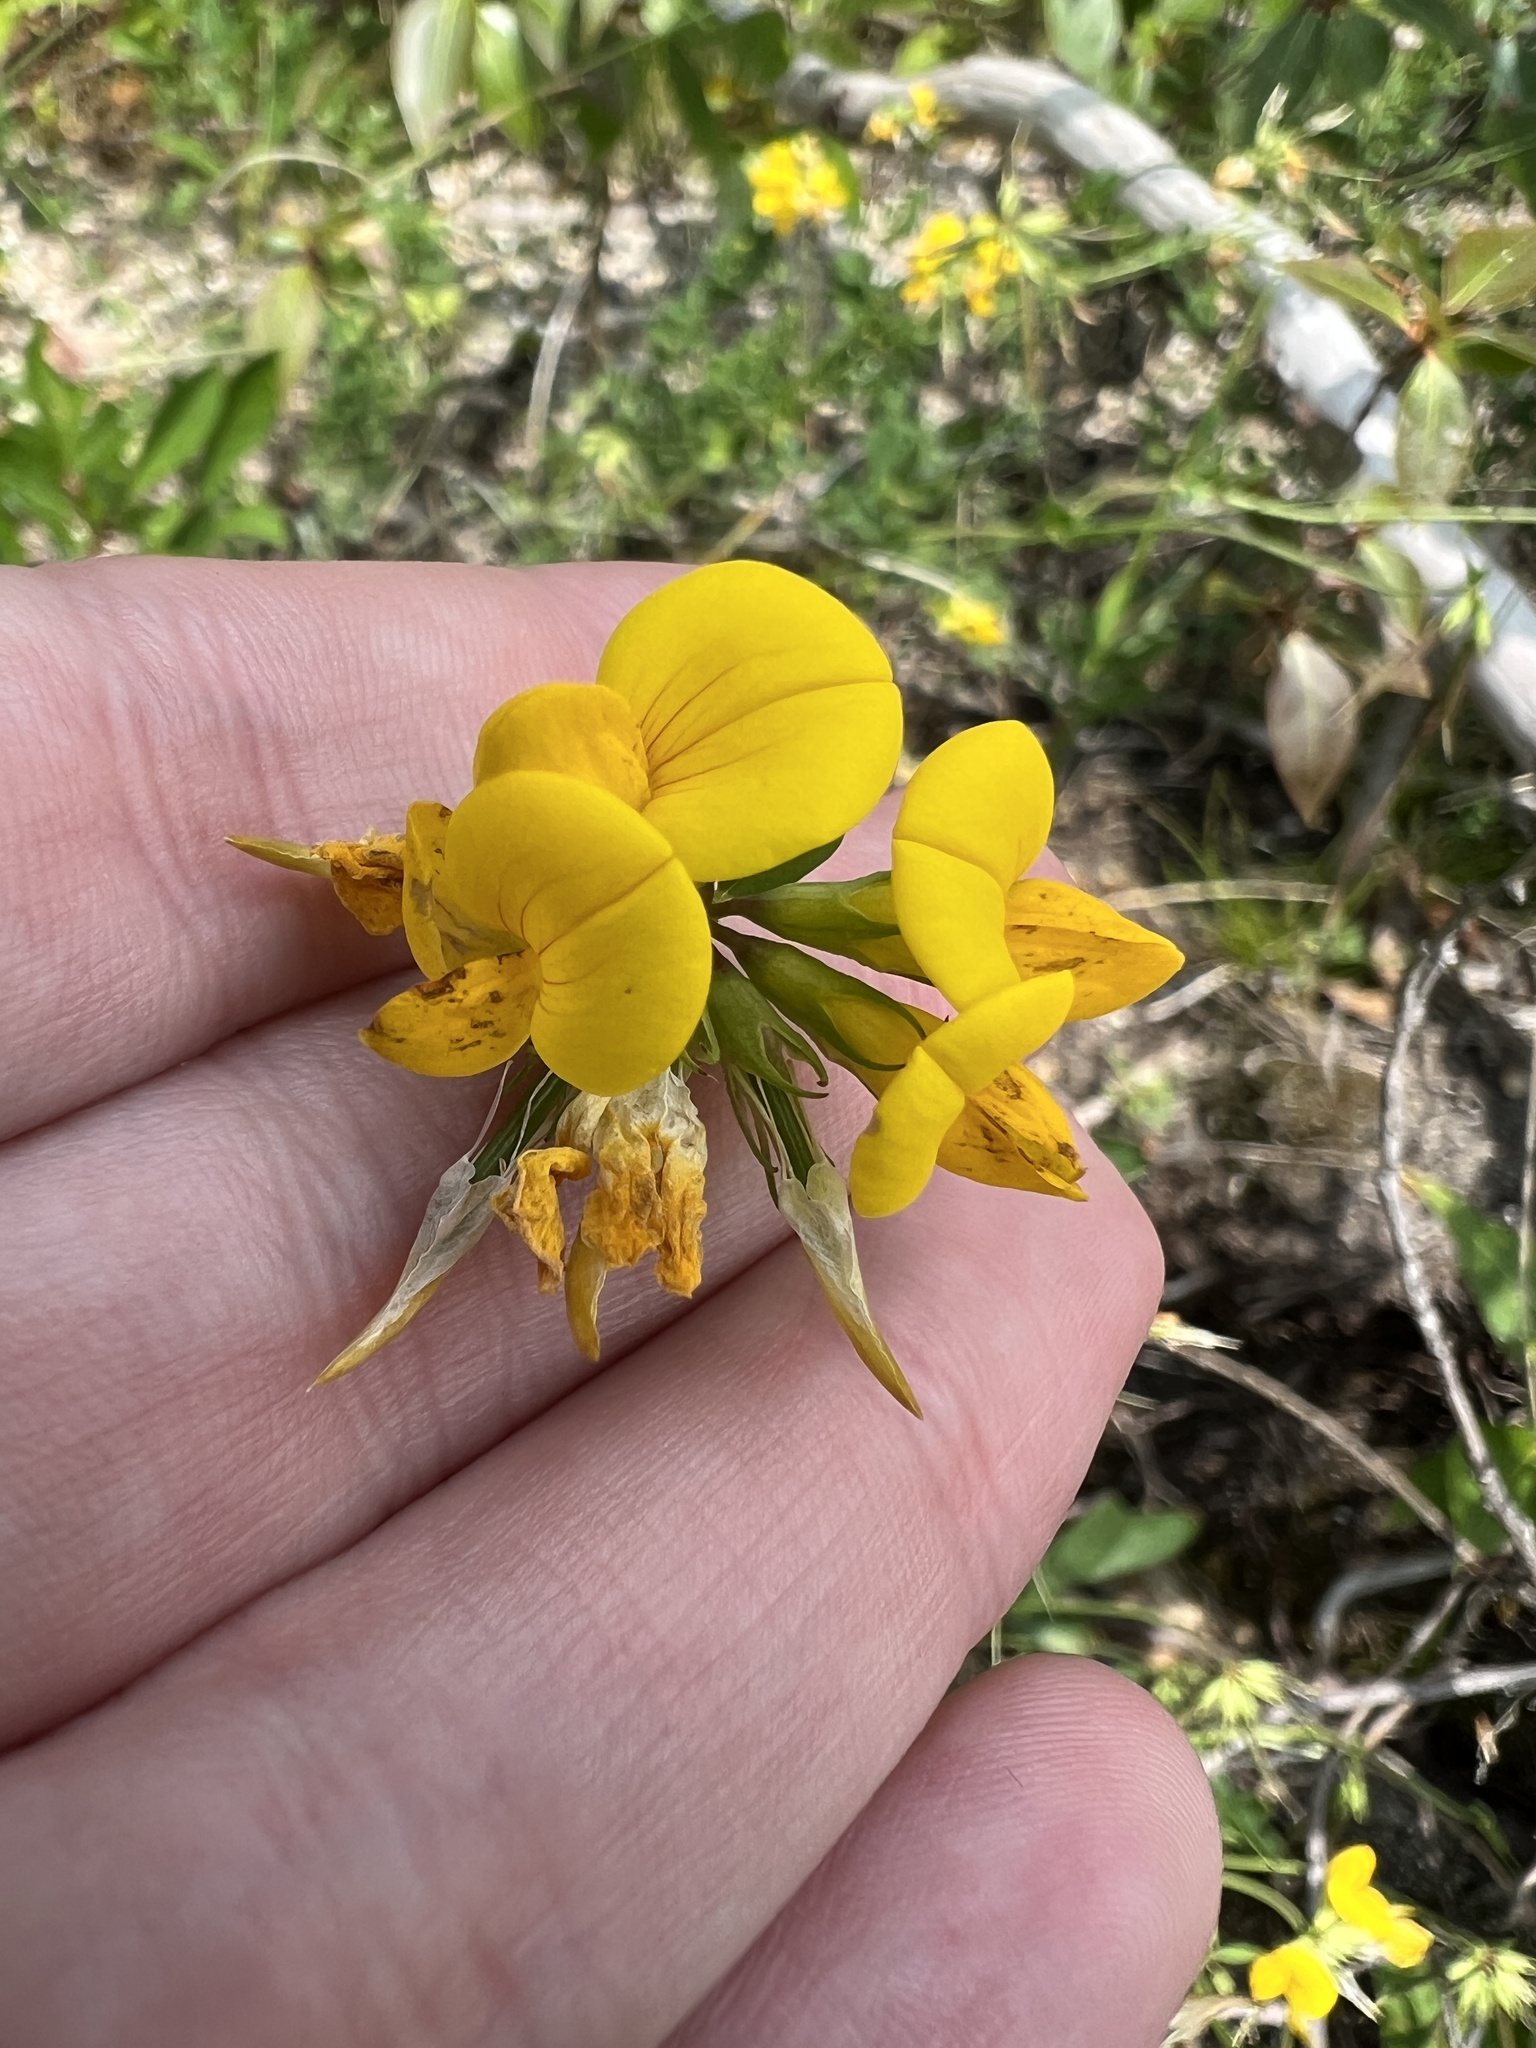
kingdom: Plantae
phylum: Tracheophyta
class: Magnoliopsida
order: Fabales
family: Fabaceae
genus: Lotus
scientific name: Lotus corniculatus
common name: Common bird's-foot-trefoil
